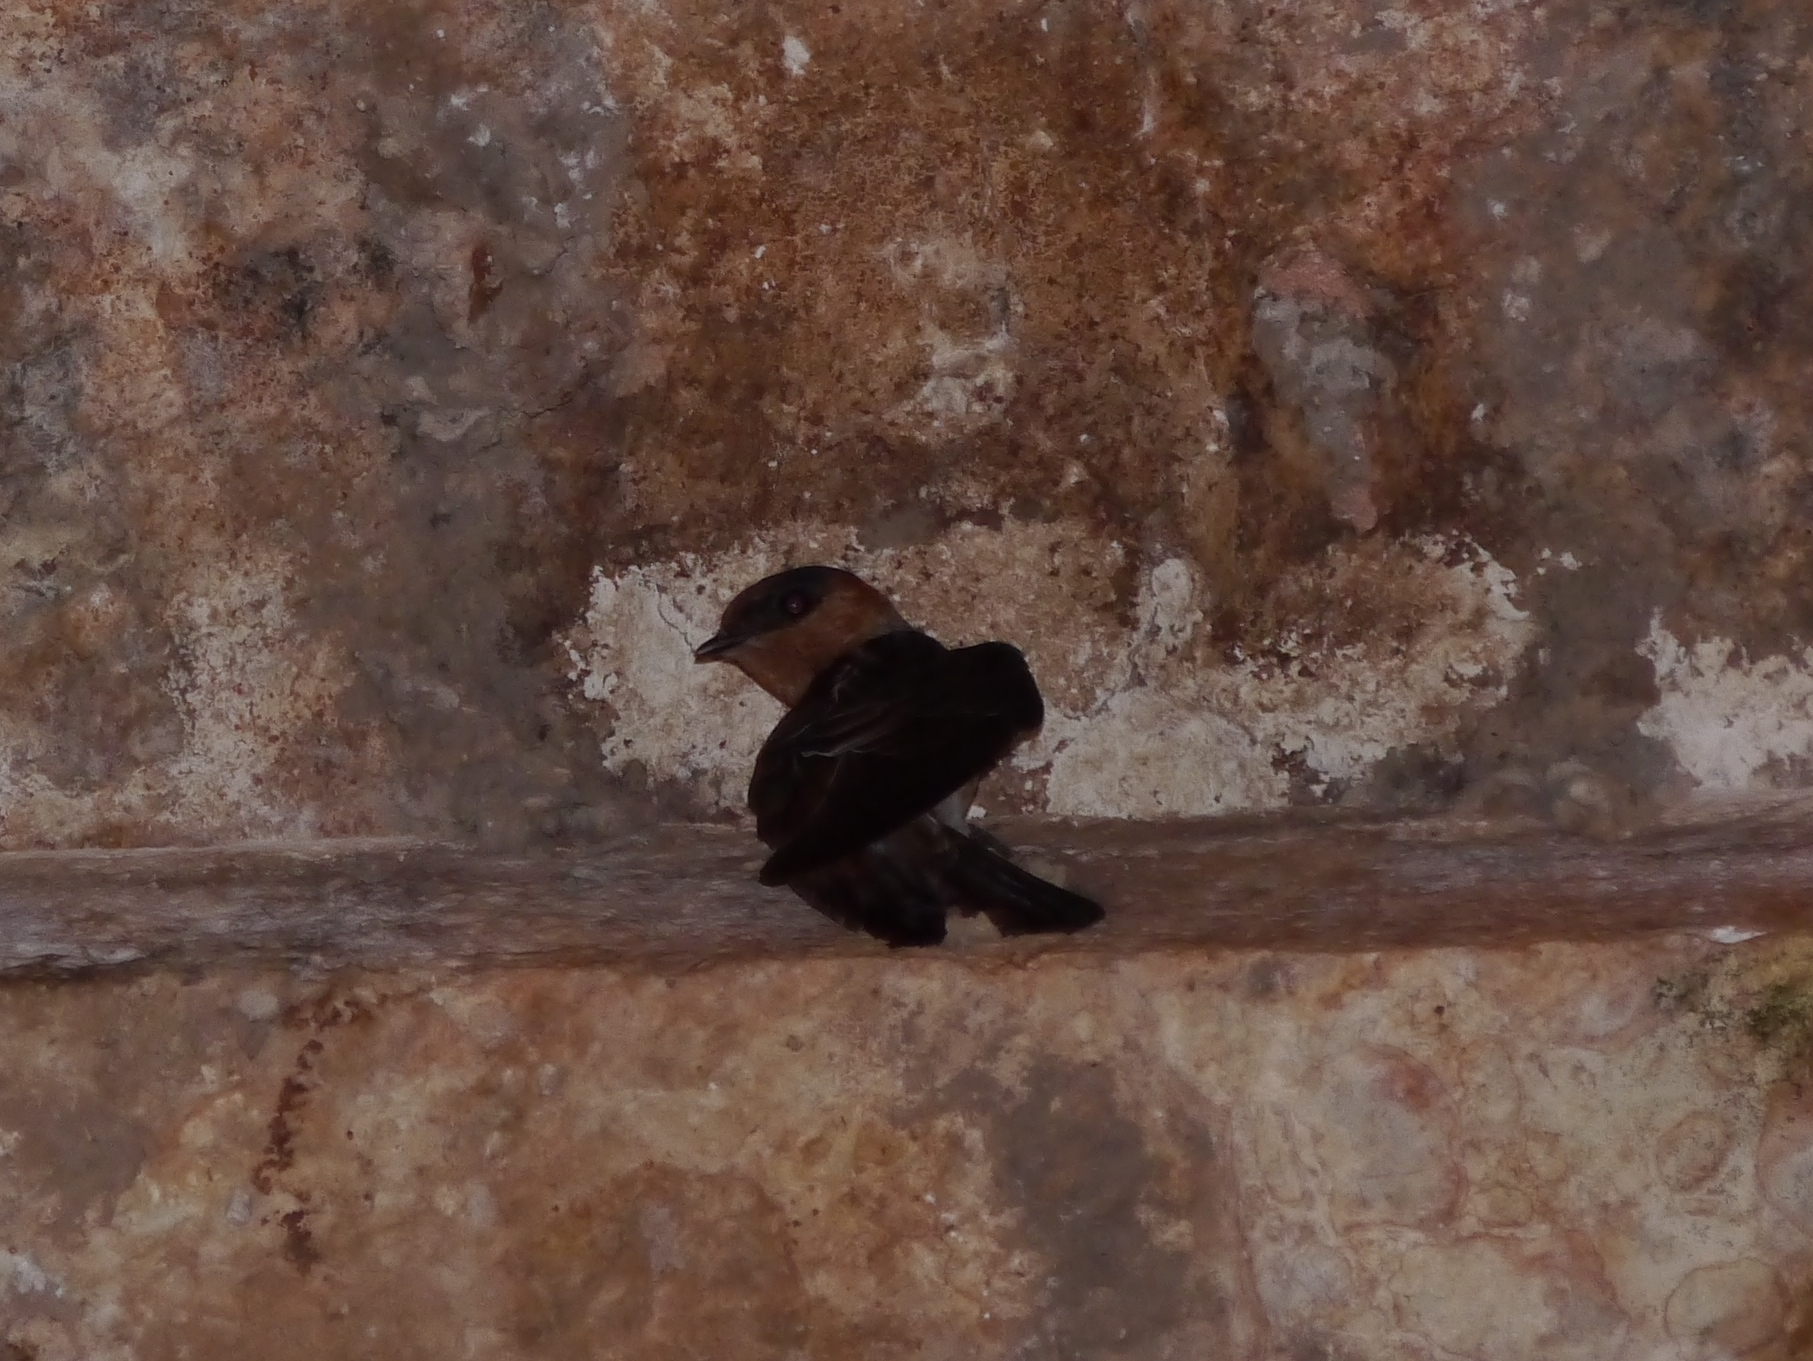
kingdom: Animalia
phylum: Chordata
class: Aves
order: Passeriformes
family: Hirundinidae
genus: Petrochelidon
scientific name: Petrochelidon fulva
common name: Cave swallow
